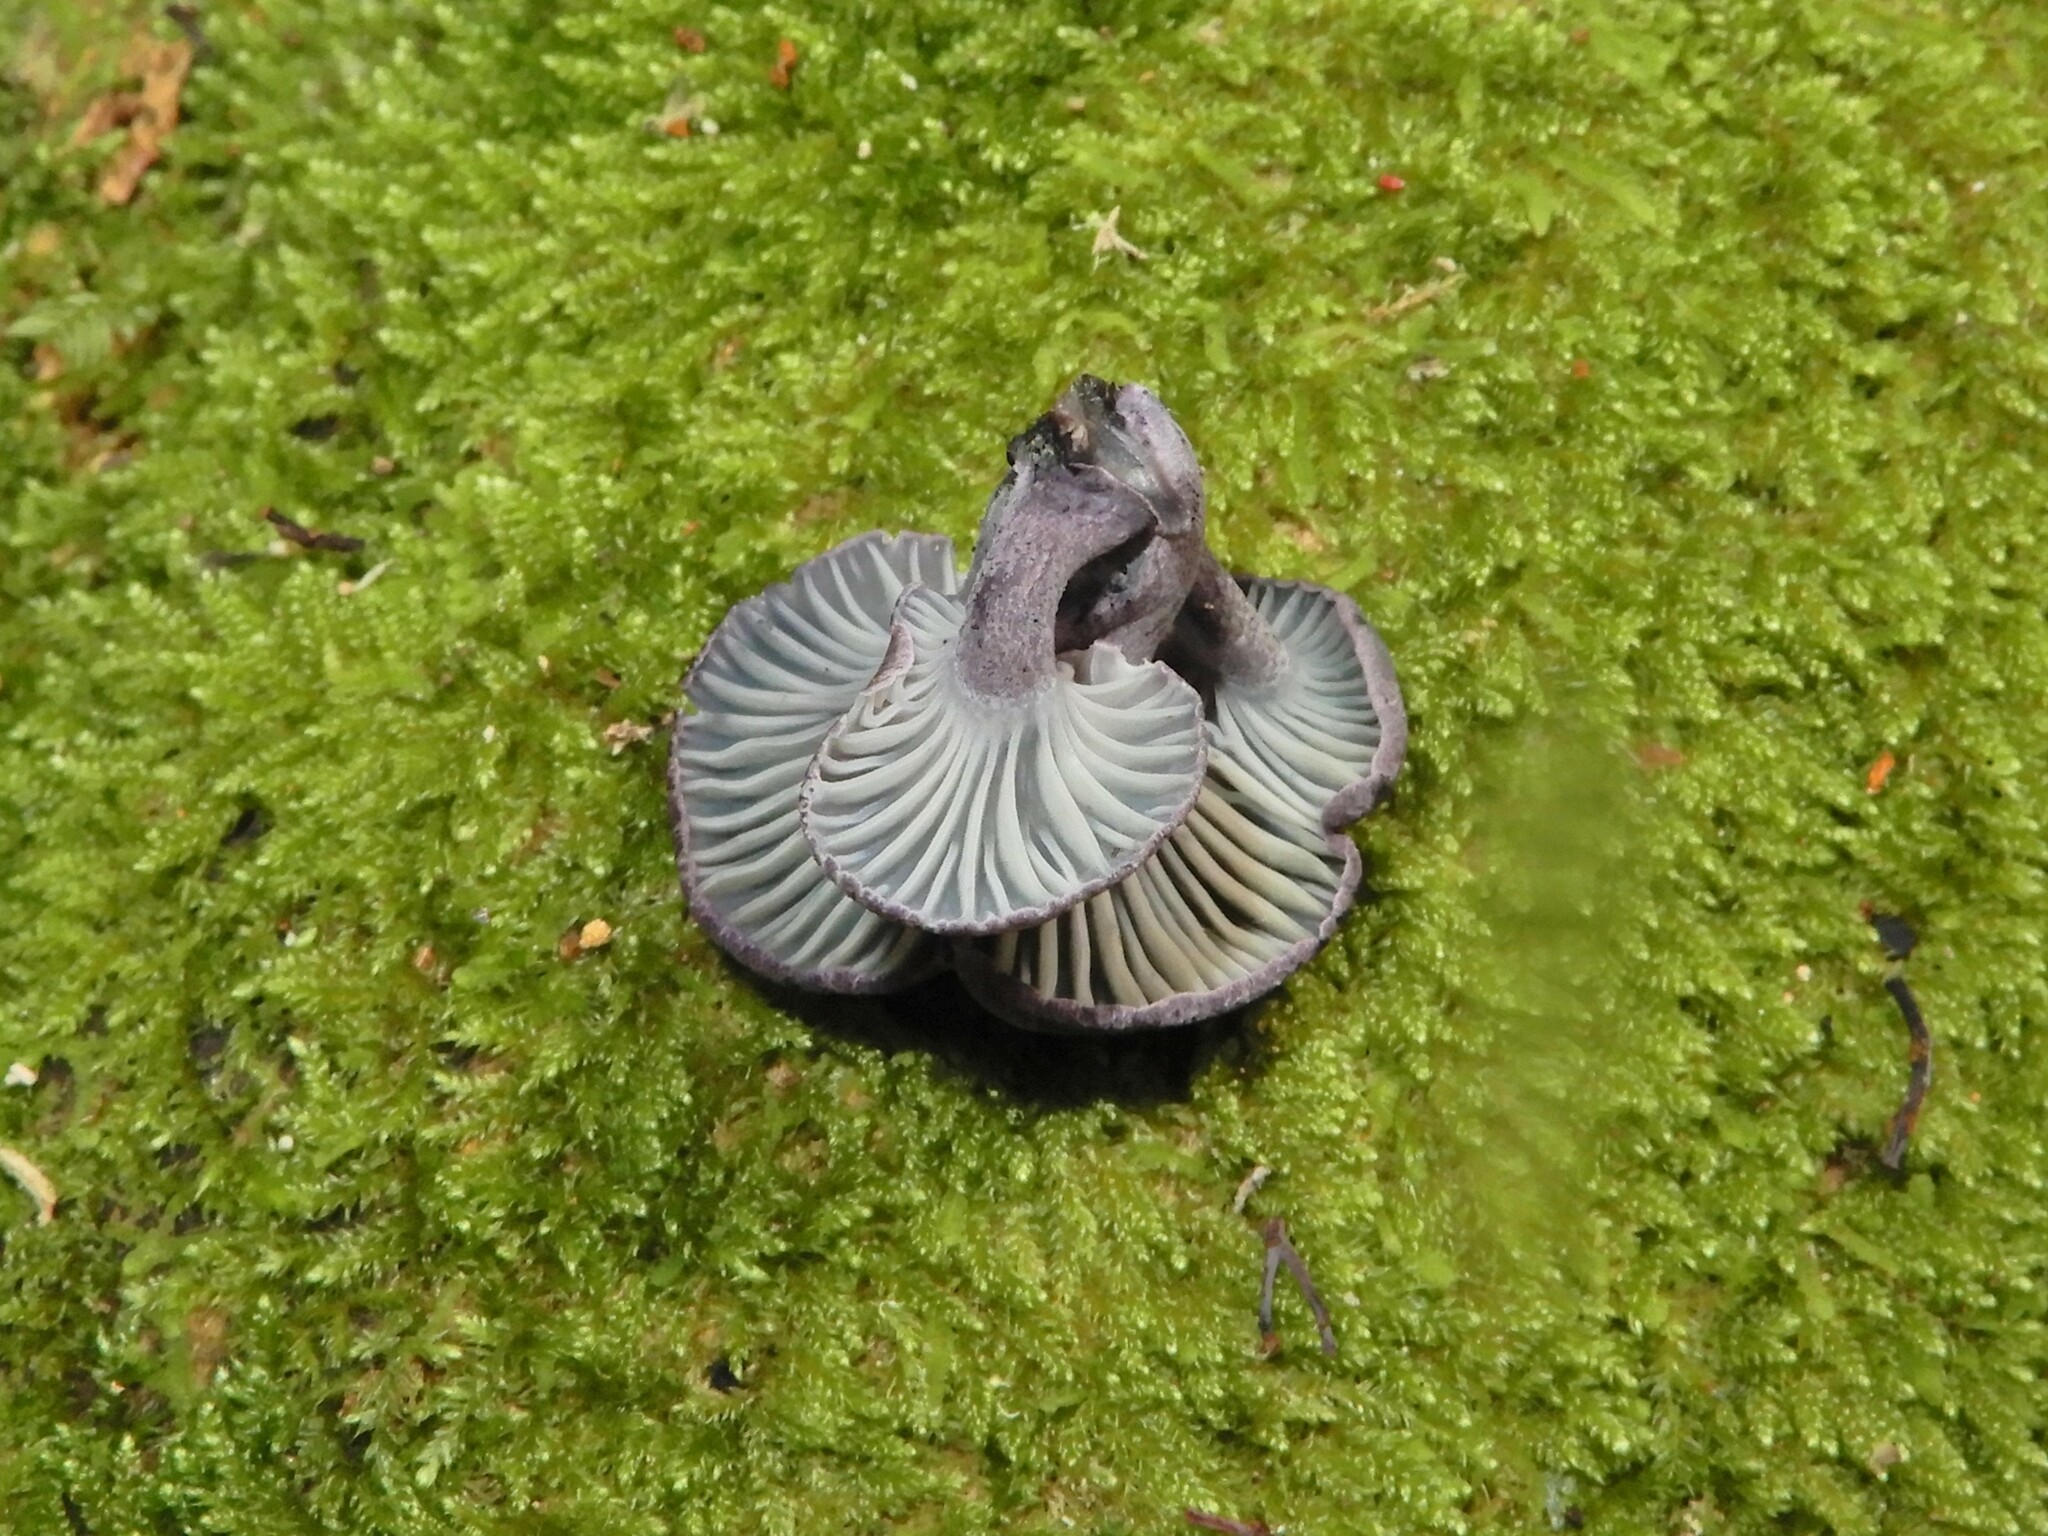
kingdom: Fungi
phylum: Basidiomycota
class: Agaricomycetes
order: Agaricales
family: Marasmiaceae
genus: Gerronema
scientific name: Gerronema waikanaense
